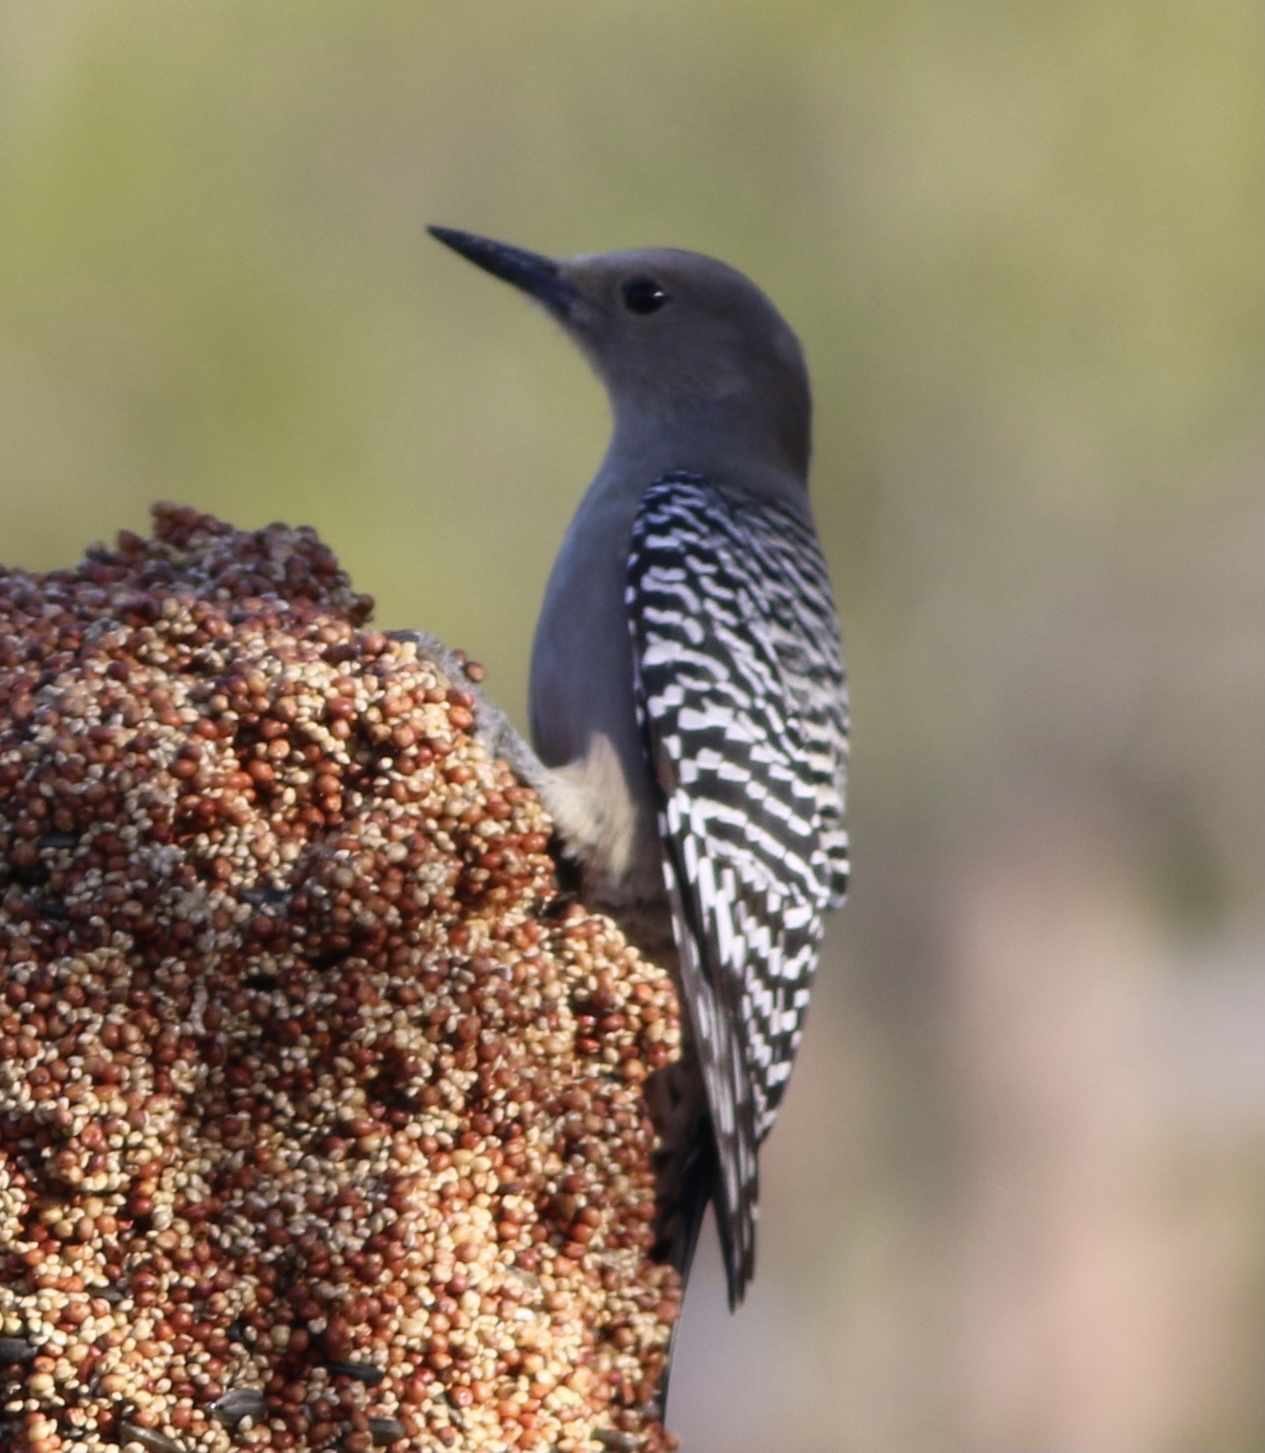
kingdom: Animalia
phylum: Chordata
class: Aves
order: Piciformes
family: Picidae
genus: Melanerpes
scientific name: Melanerpes uropygialis
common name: Gila woodpecker
